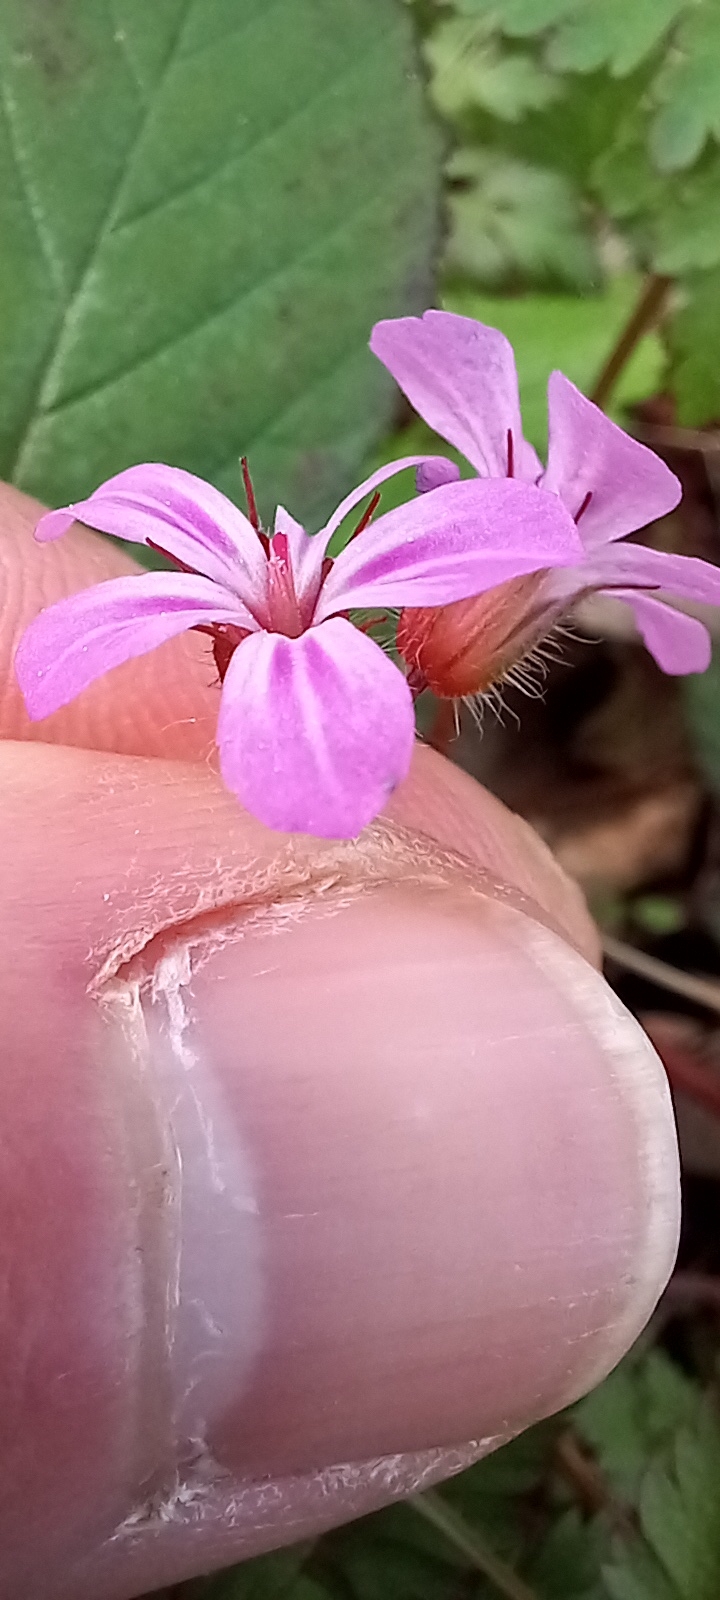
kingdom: Plantae
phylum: Tracheophyta
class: Magnoliopsida
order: Geraniales
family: Geraniaceae
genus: Geranium
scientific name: Geranium robertianum
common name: Herb-robert
